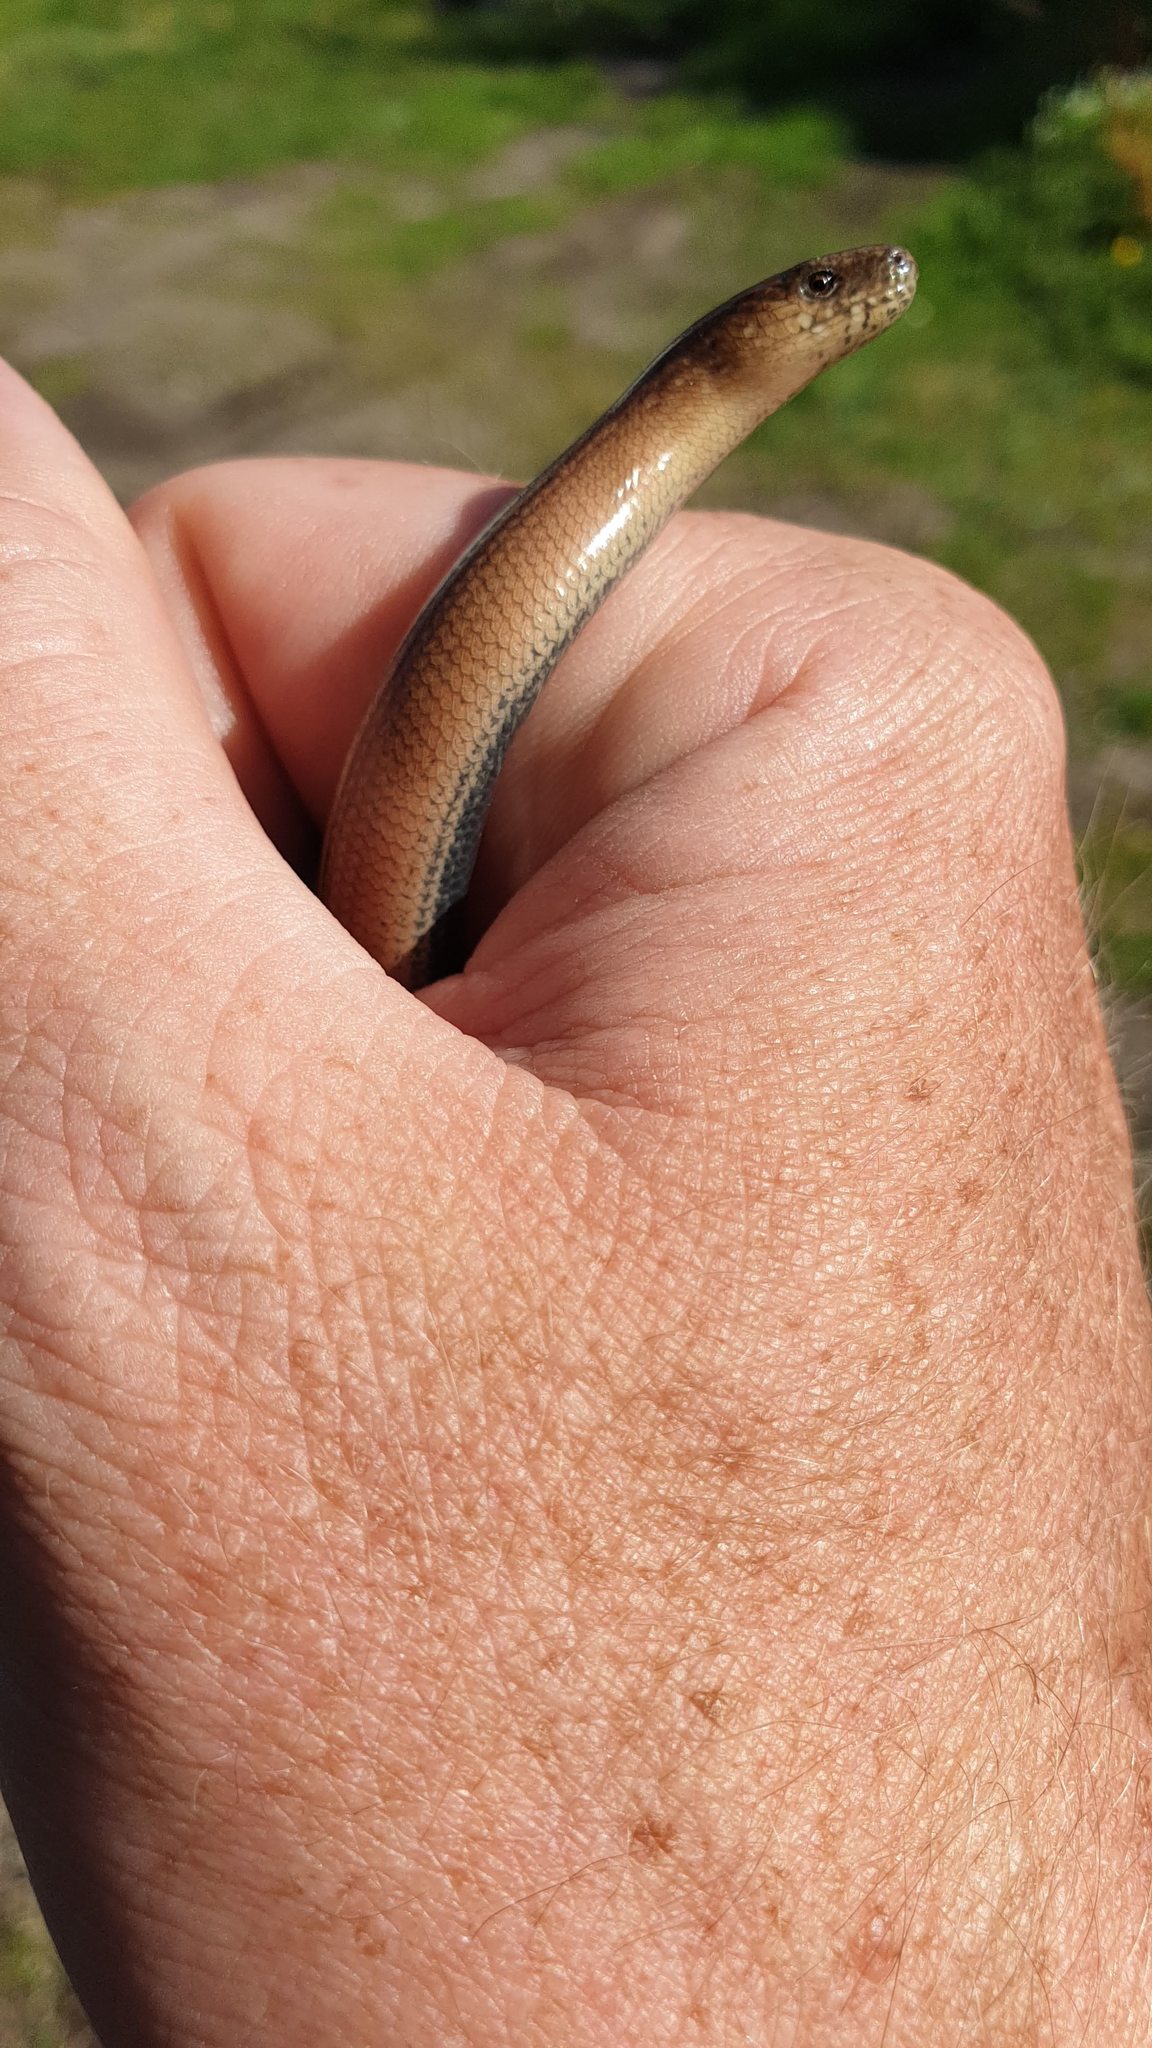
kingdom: Animalia
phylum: Chordata
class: Squamata
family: Anguidae
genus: Anguis
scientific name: Anguis fragilis
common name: Slow worm
